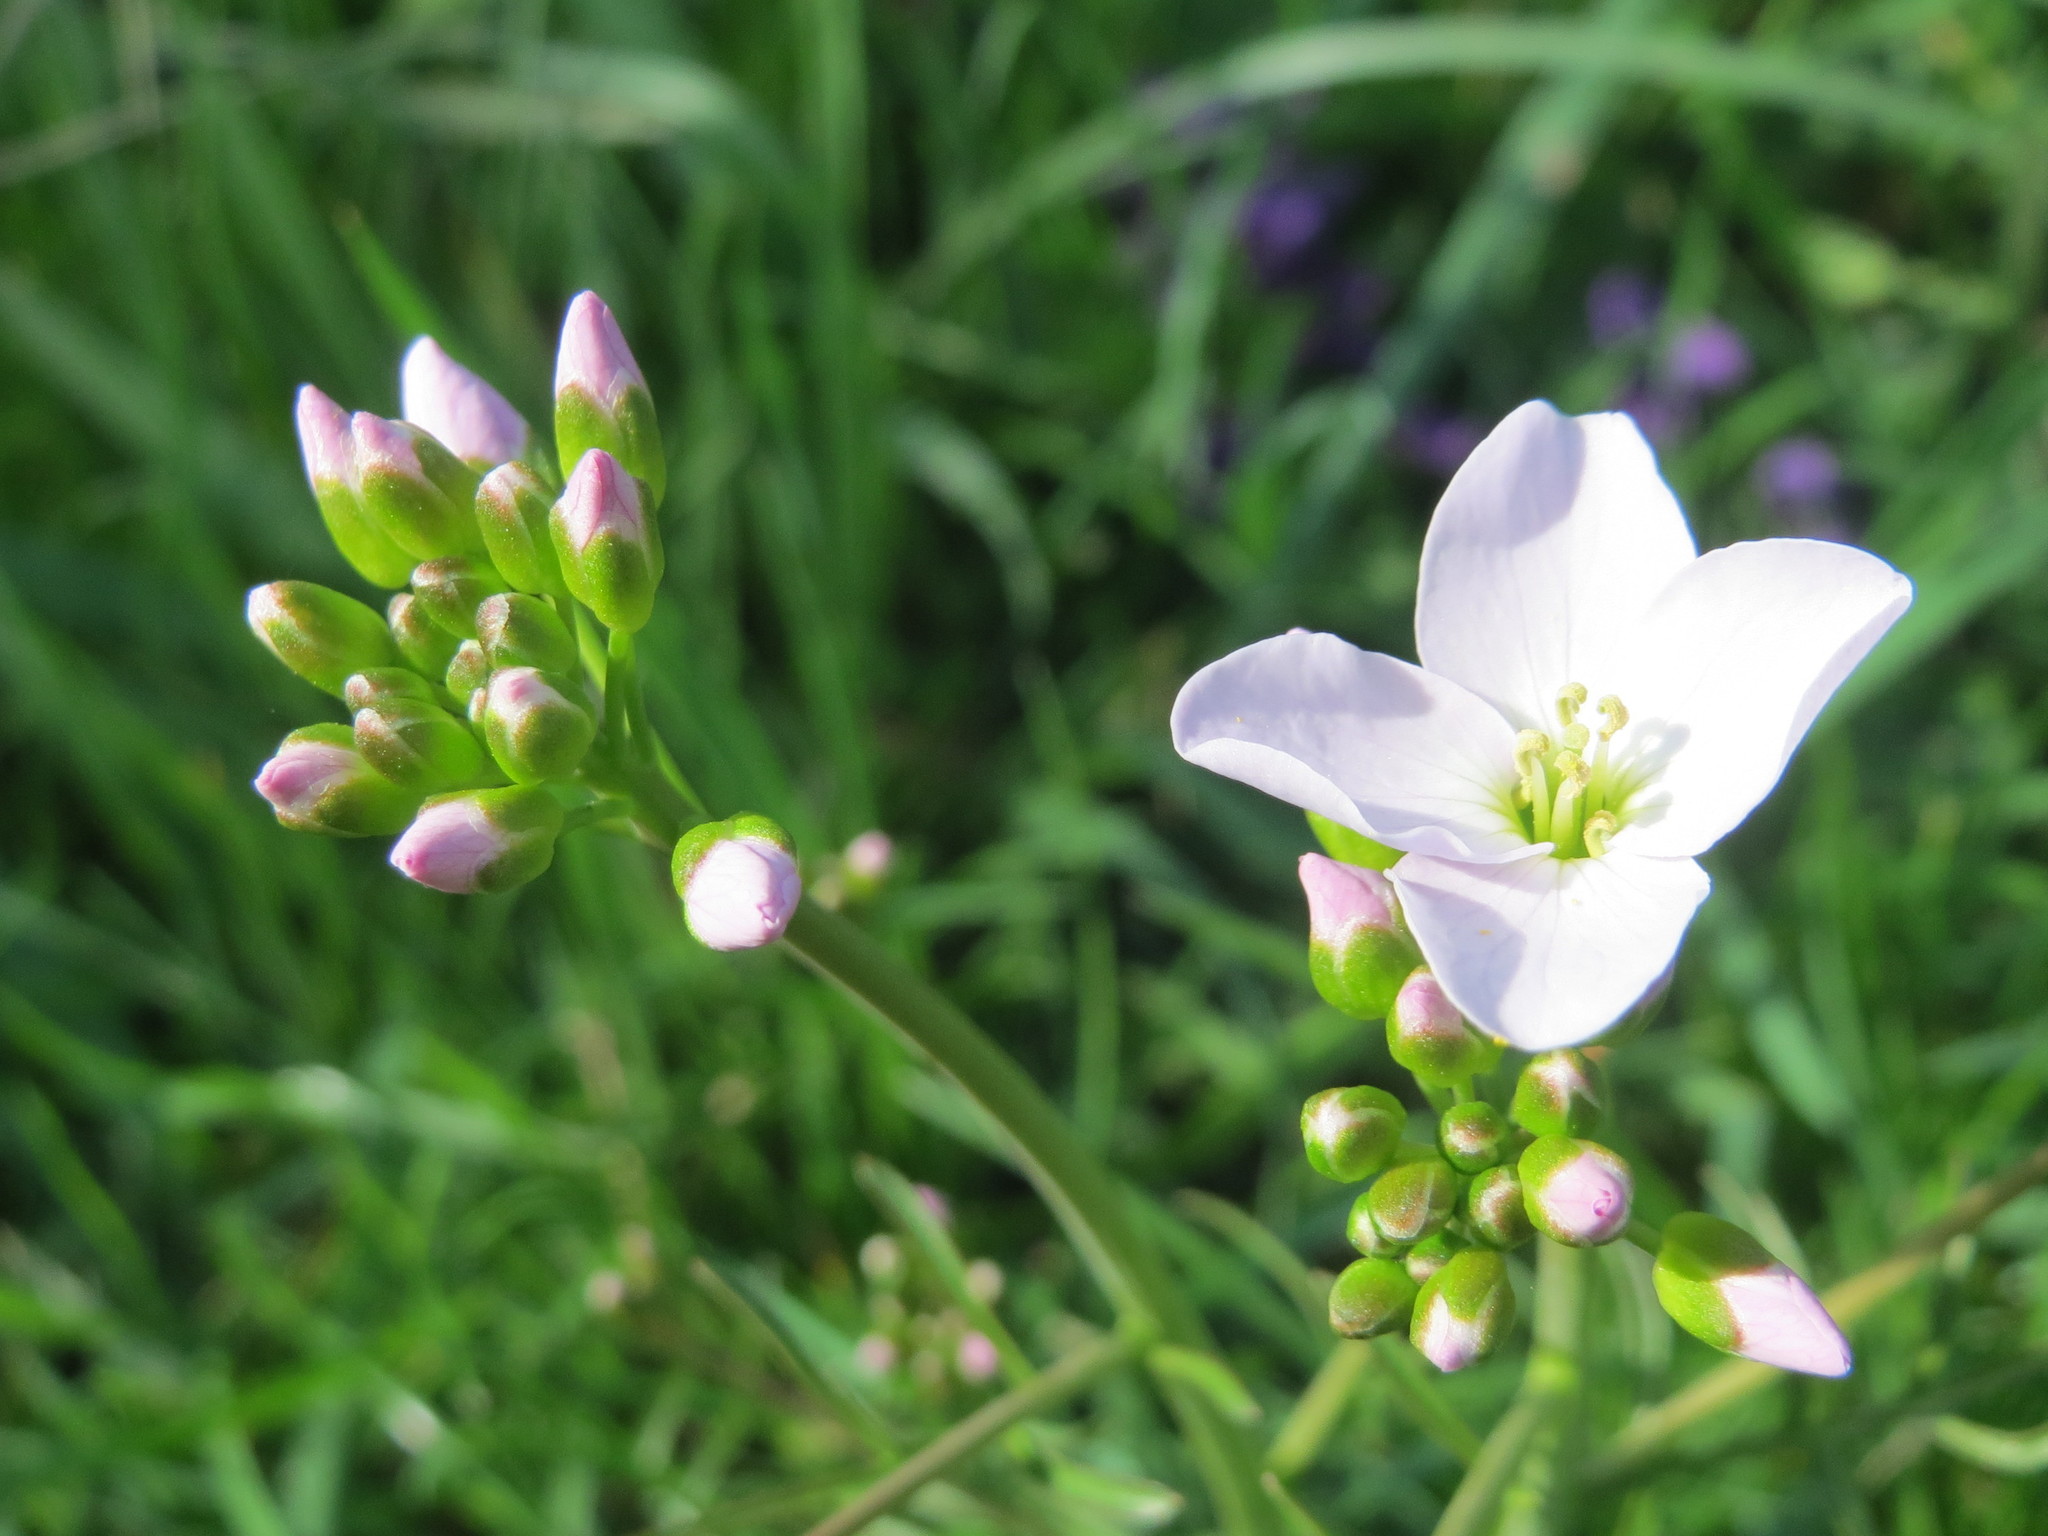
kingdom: Plantae
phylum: Tracheophyta
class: Magnoliopsida
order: Brassicales
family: Brassicaceae
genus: Cardamine
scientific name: Cardamine pratensis
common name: Cuckoo flower
